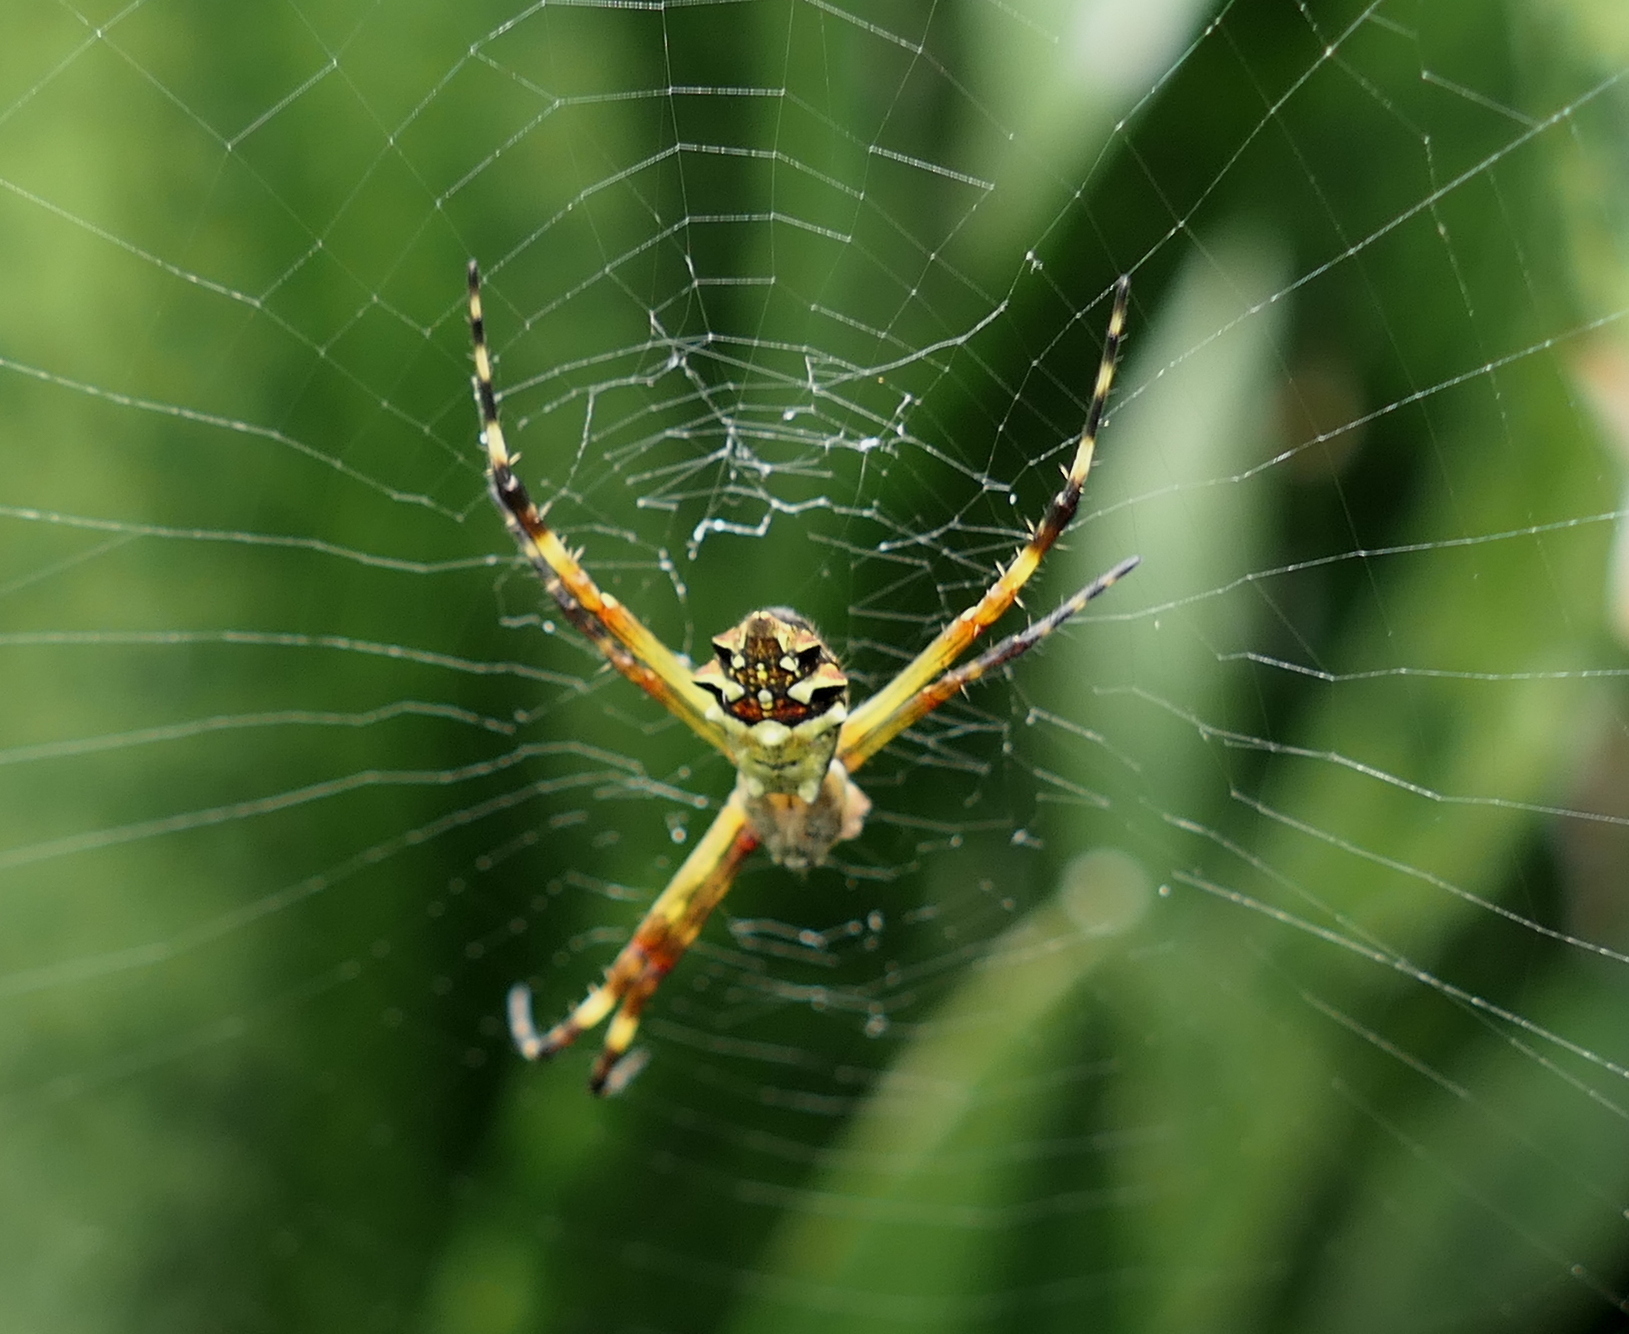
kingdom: Animalia
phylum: Arthropoda
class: Arachnida
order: Araneae
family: Araneidae
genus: Argiope
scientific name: Argiope argentata
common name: Orb weavers
